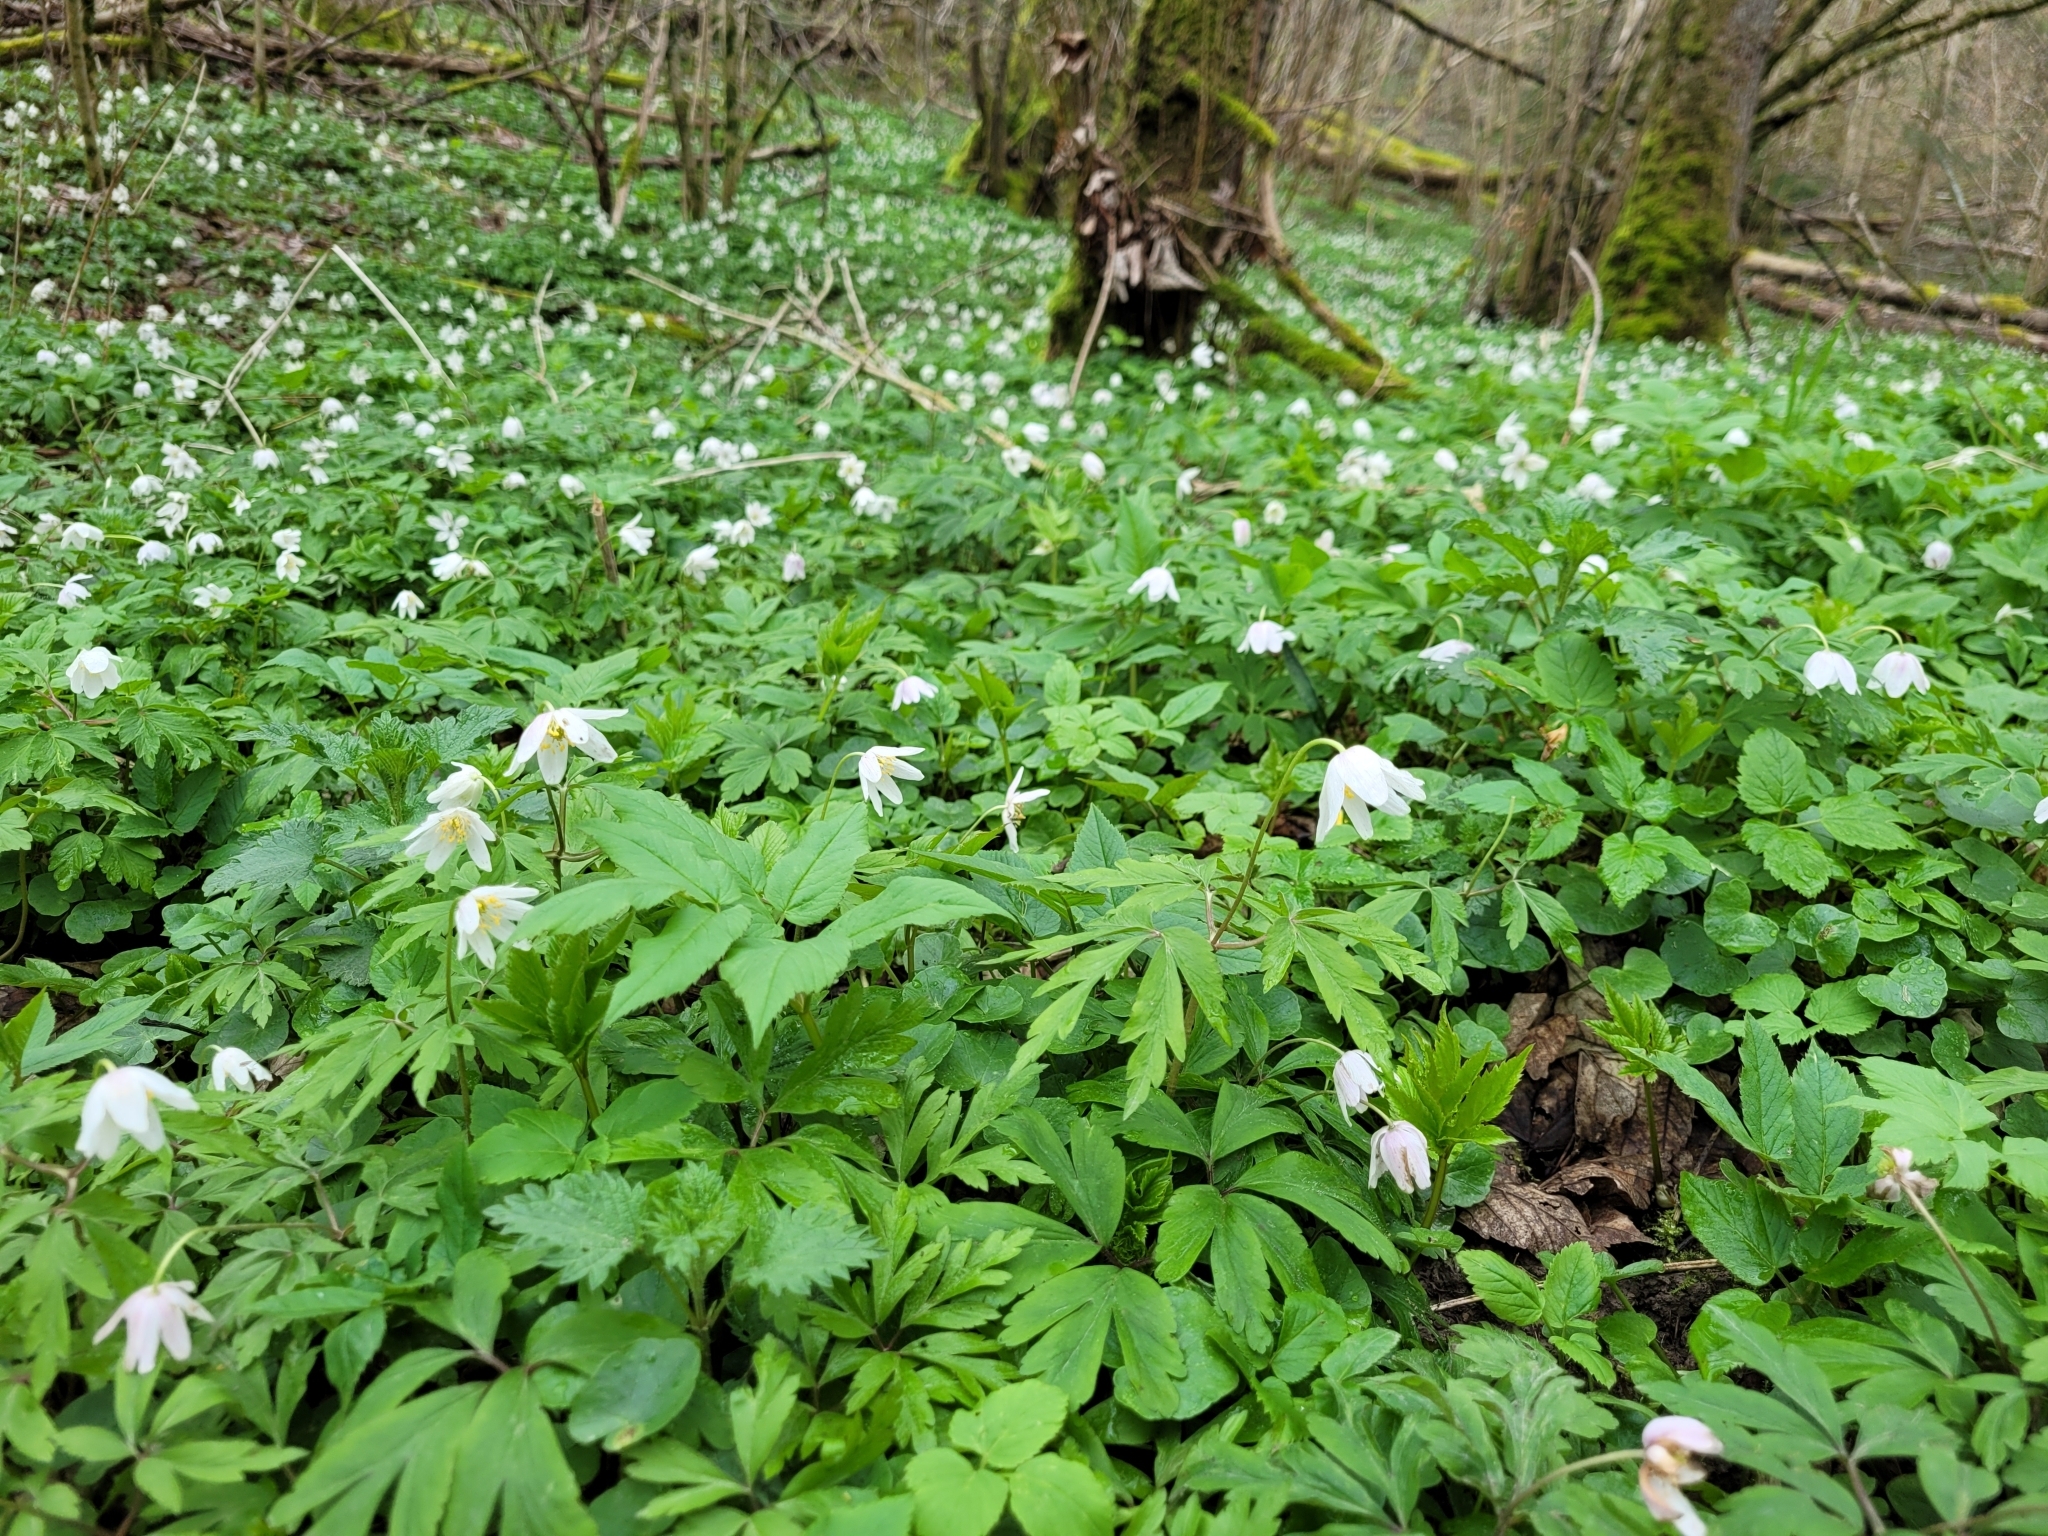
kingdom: Plantae
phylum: Tracheophyta
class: Magnoliopsida
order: Ranunculales
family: Ranunculaceae
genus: Anemone
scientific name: Anemone nemorosa
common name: Wood anemone
